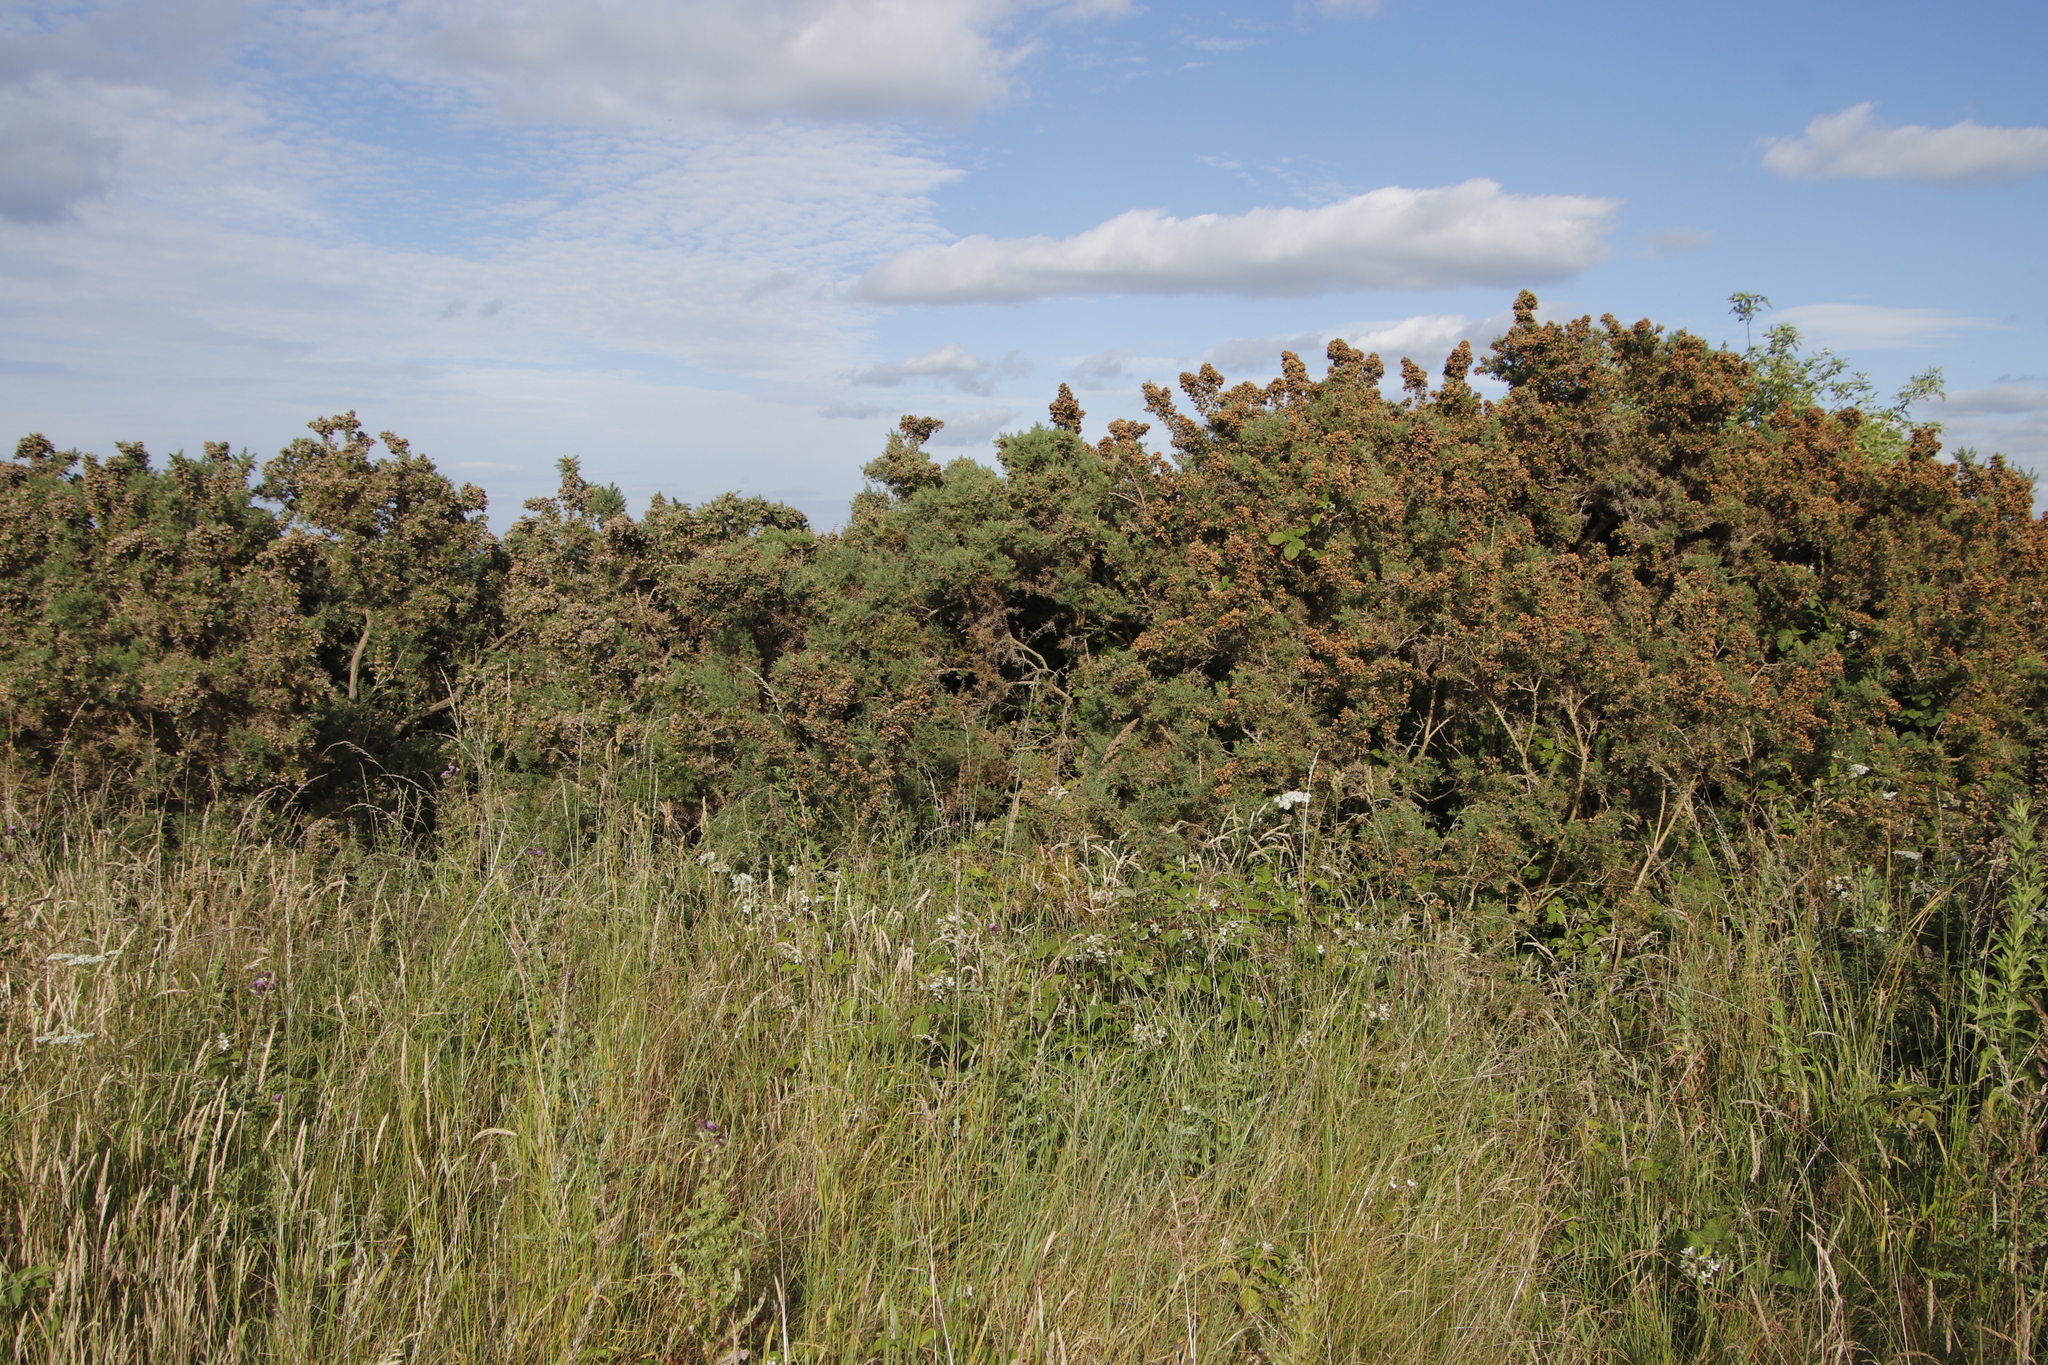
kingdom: Plantae
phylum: Tracheophyta
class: Magnoliopsida
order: Fabales
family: Fabaceae
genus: Ulex
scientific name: Ulex europaeus
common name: Common gorse
